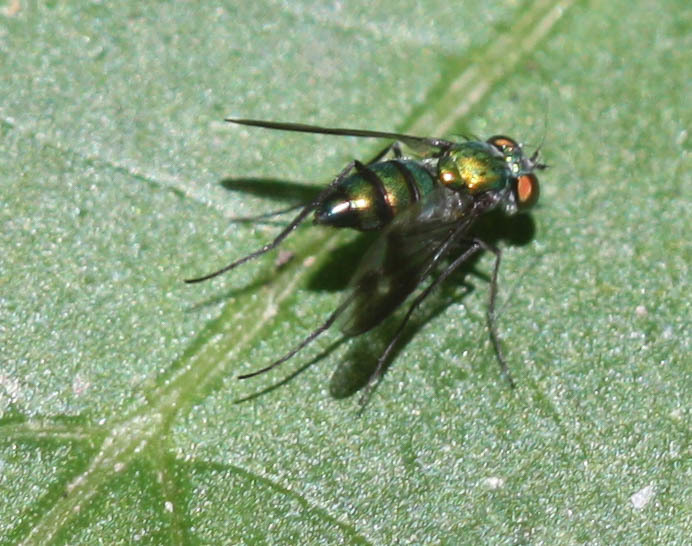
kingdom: Animalia
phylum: Arthropoda
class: Insecta
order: Diptera
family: Dolichopodidae
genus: Condylostylus
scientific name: Condylostylus patibulatus
